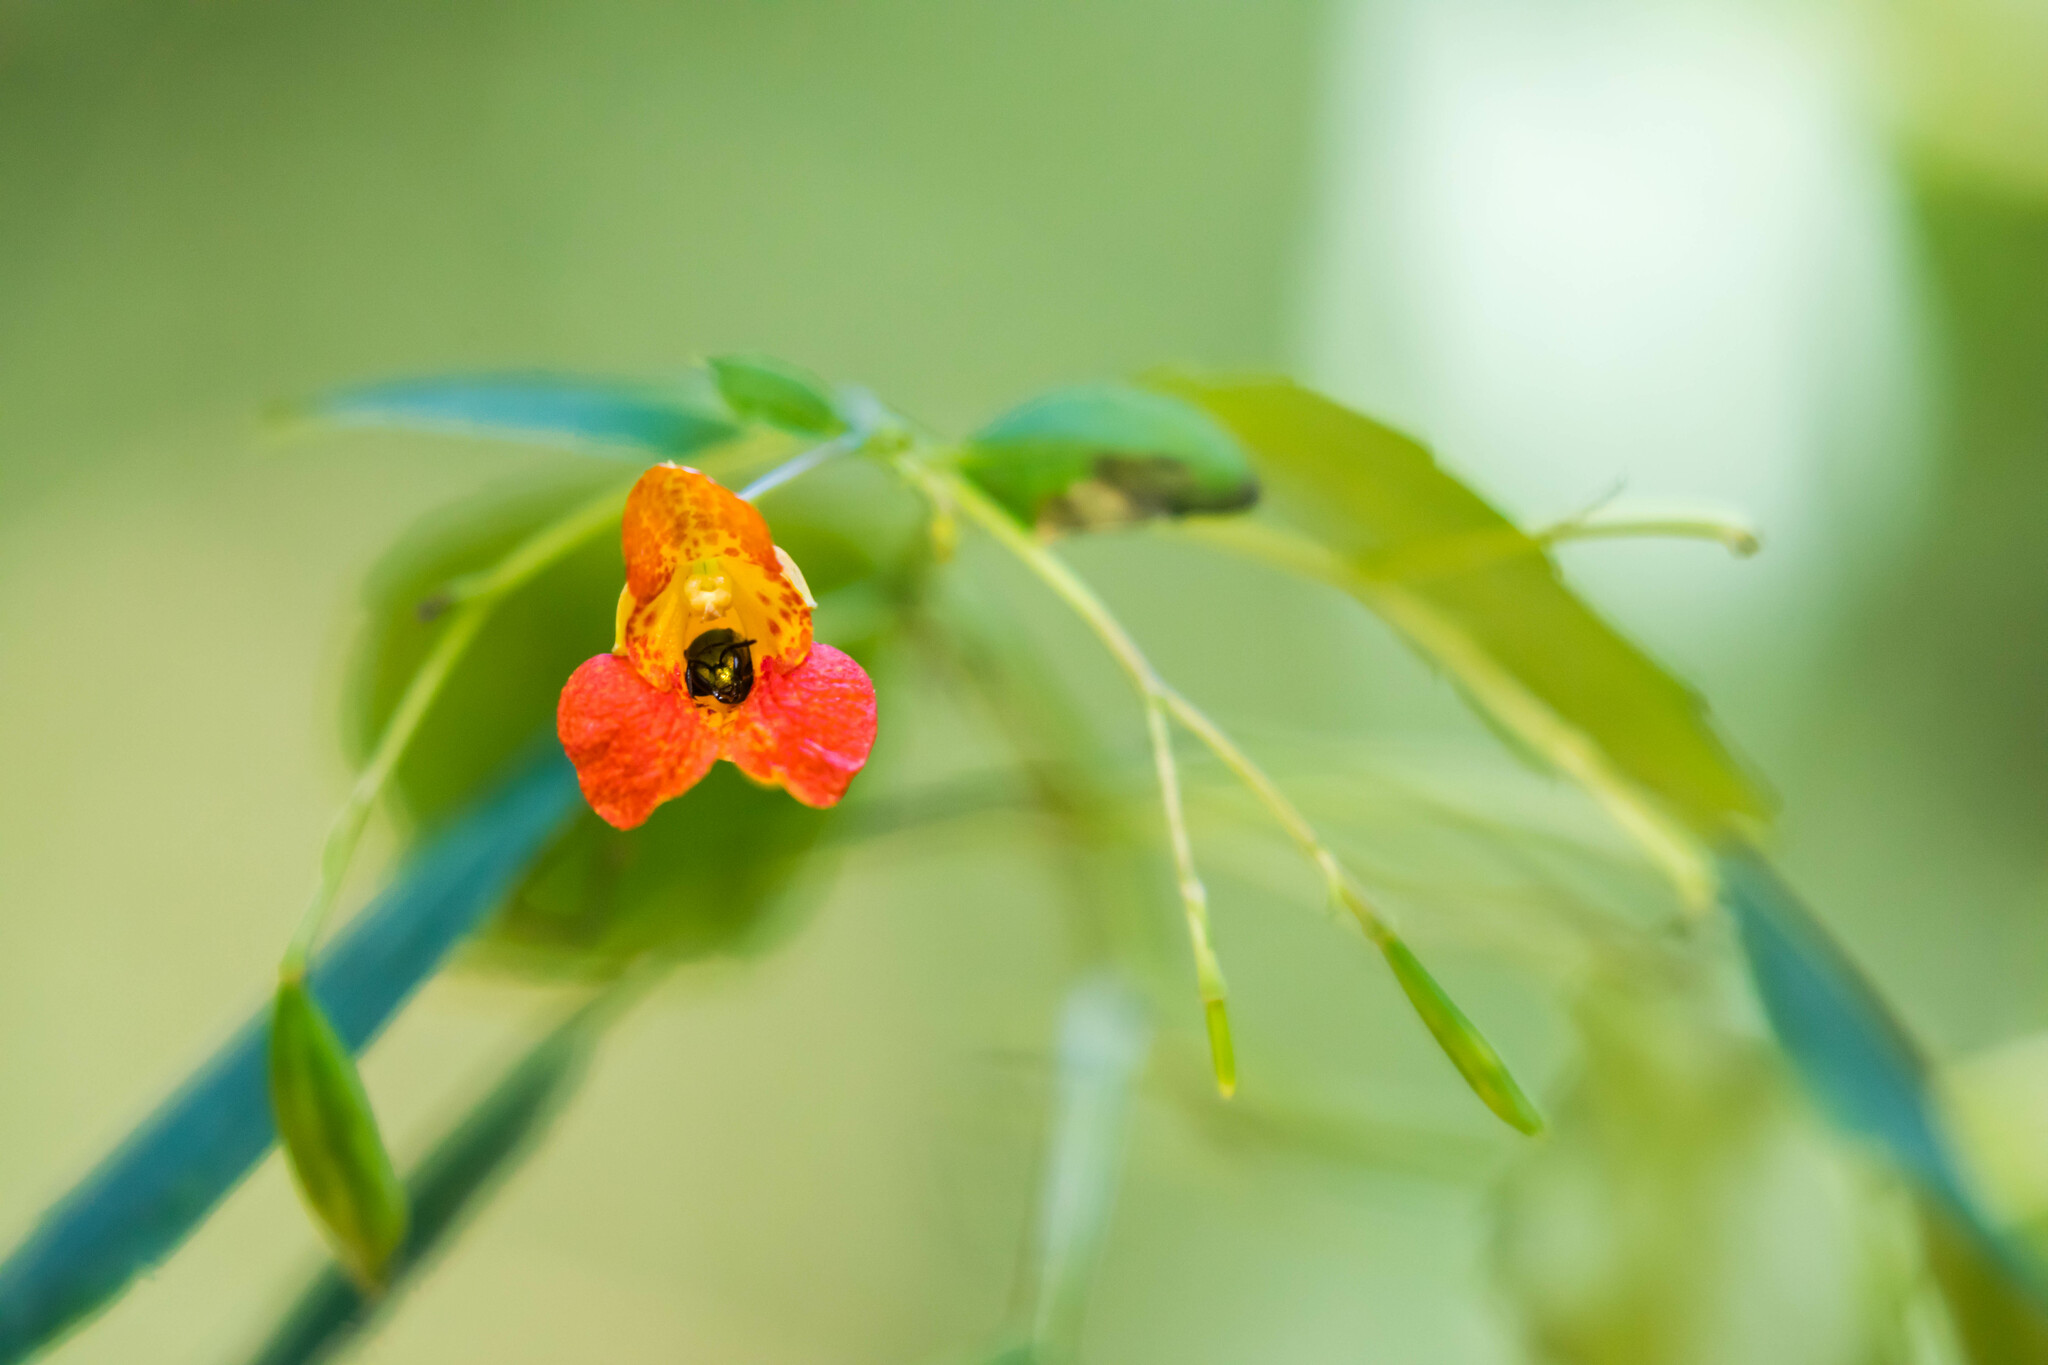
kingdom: Plantae
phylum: Tracheophyta
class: Magnoliopsida
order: Ericales
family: Balsaminaceae
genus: Impatiens
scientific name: Impatiens capensis
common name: Orange balsam
